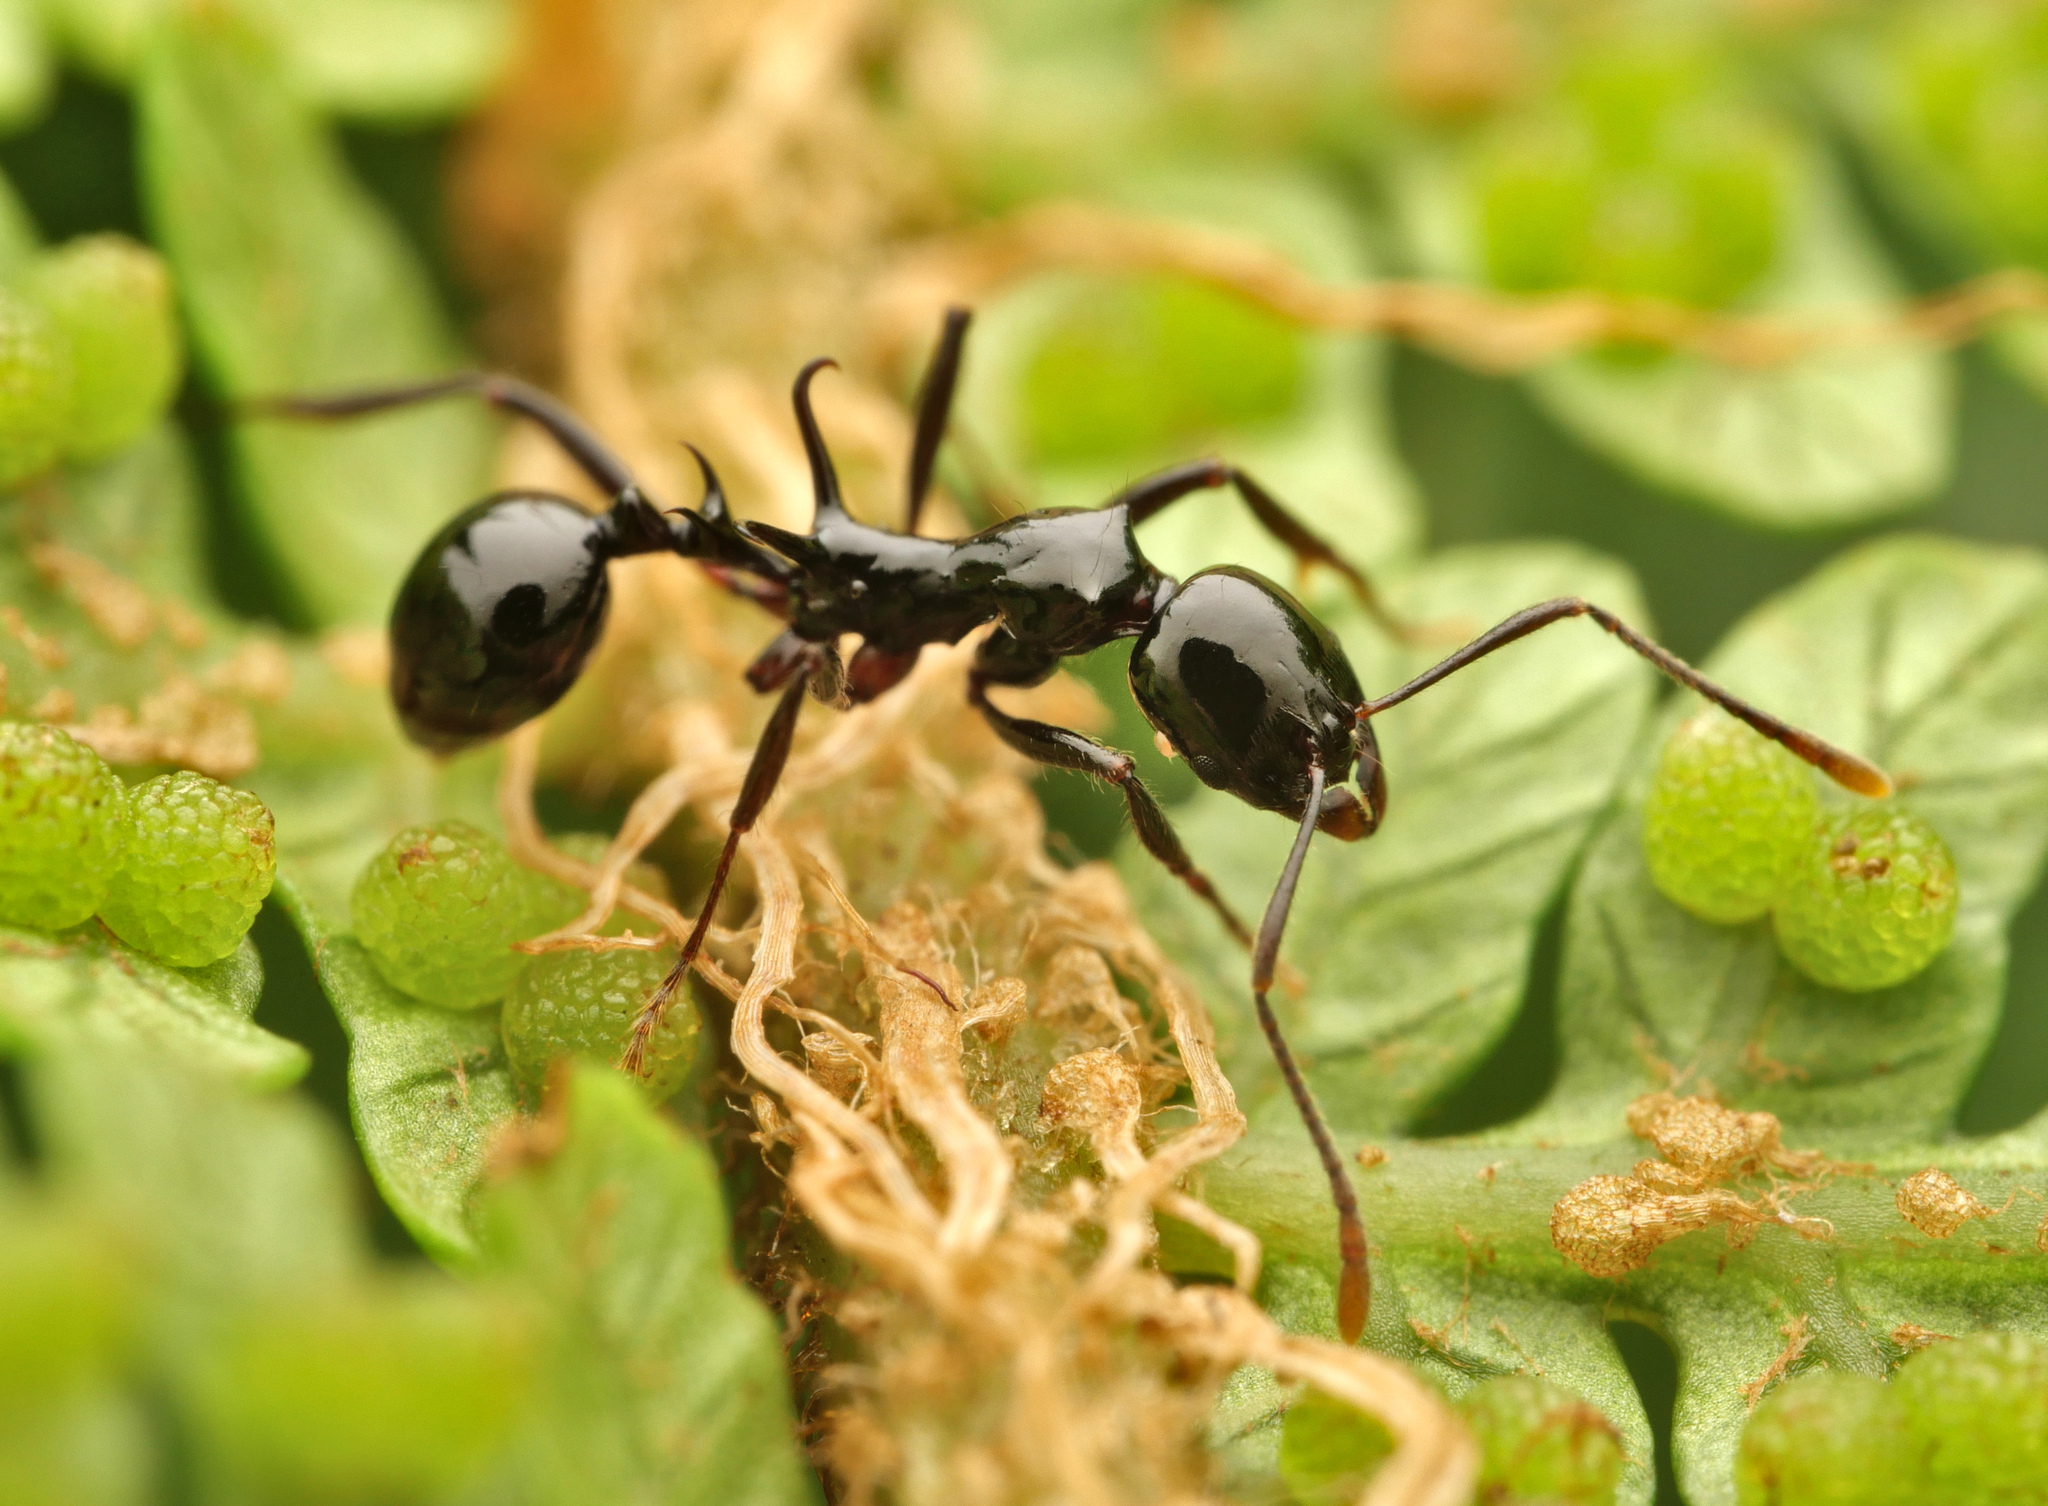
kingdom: Animalia
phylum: Arthropoda
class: Insecta
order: Hymenoptera
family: Formicidae
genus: Ancyridris
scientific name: Ancyridris polyrhachioides
